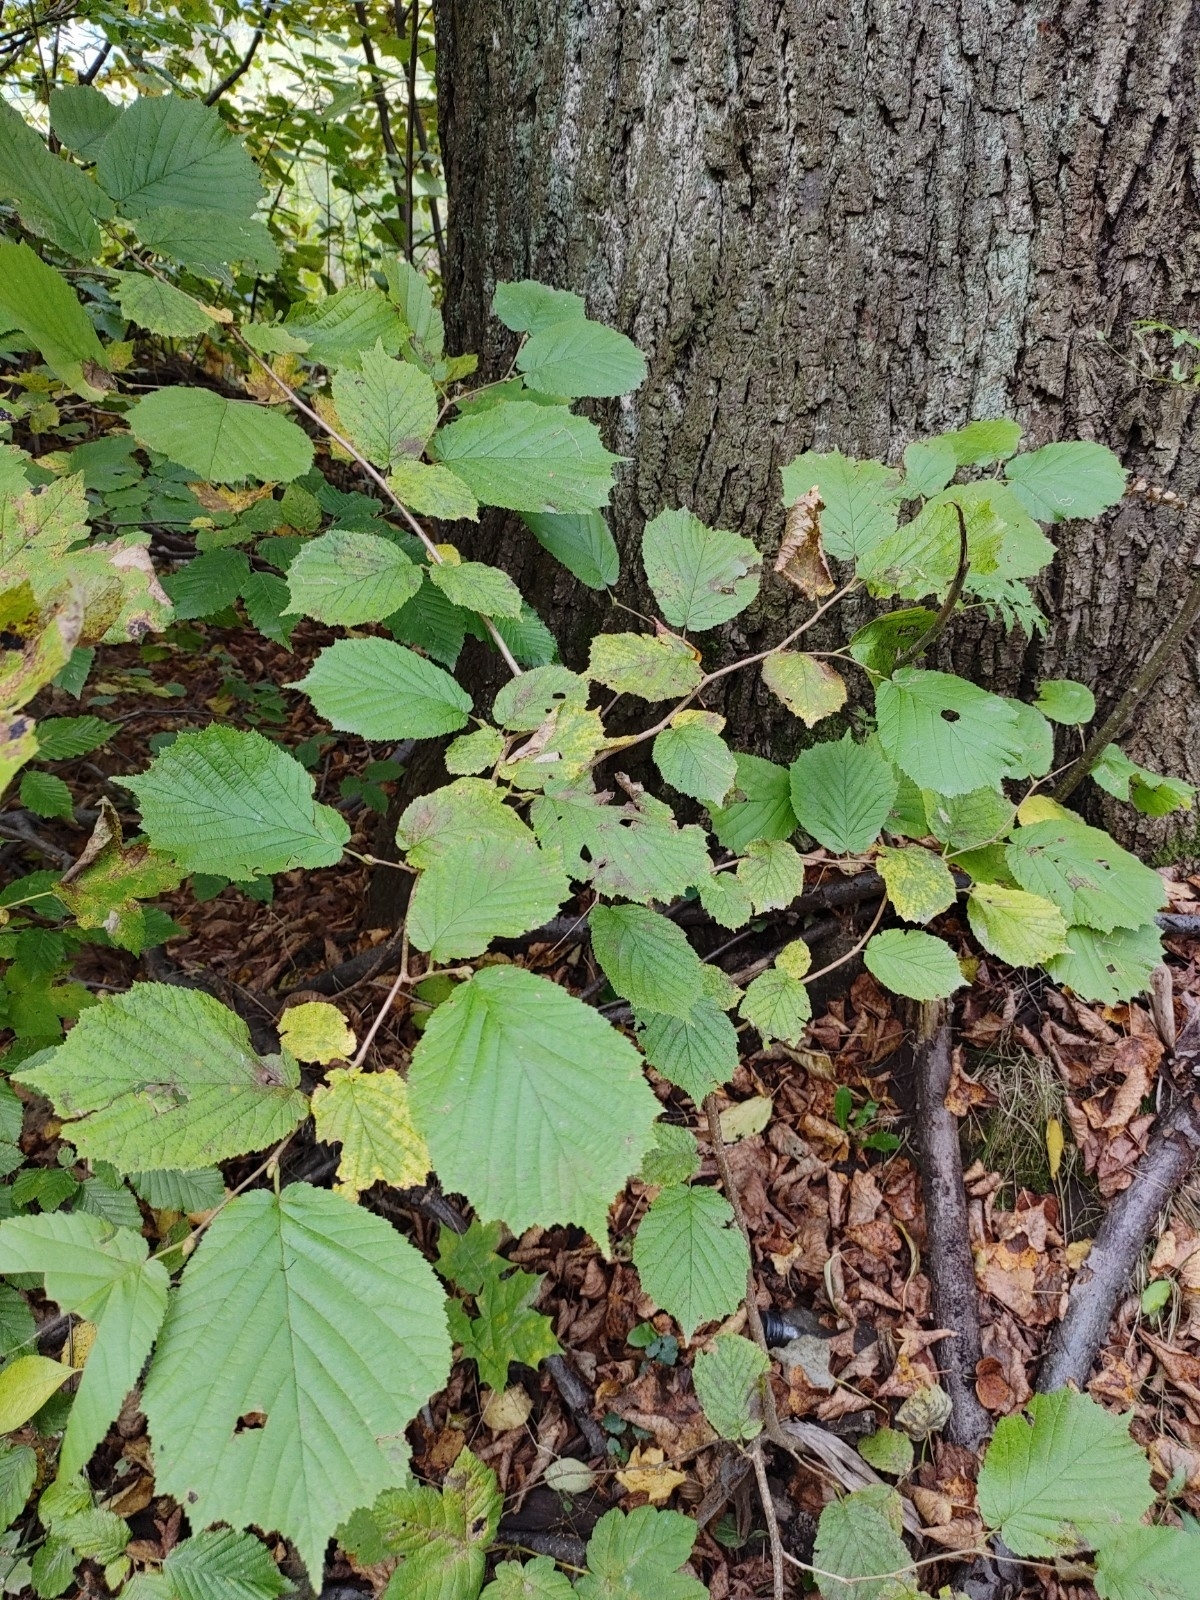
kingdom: Plantae
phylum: Tracheophyta
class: Magnoliopsida
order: Fagales
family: Betulaceae
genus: Corylus
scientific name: Corylus avellana
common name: European hazel
